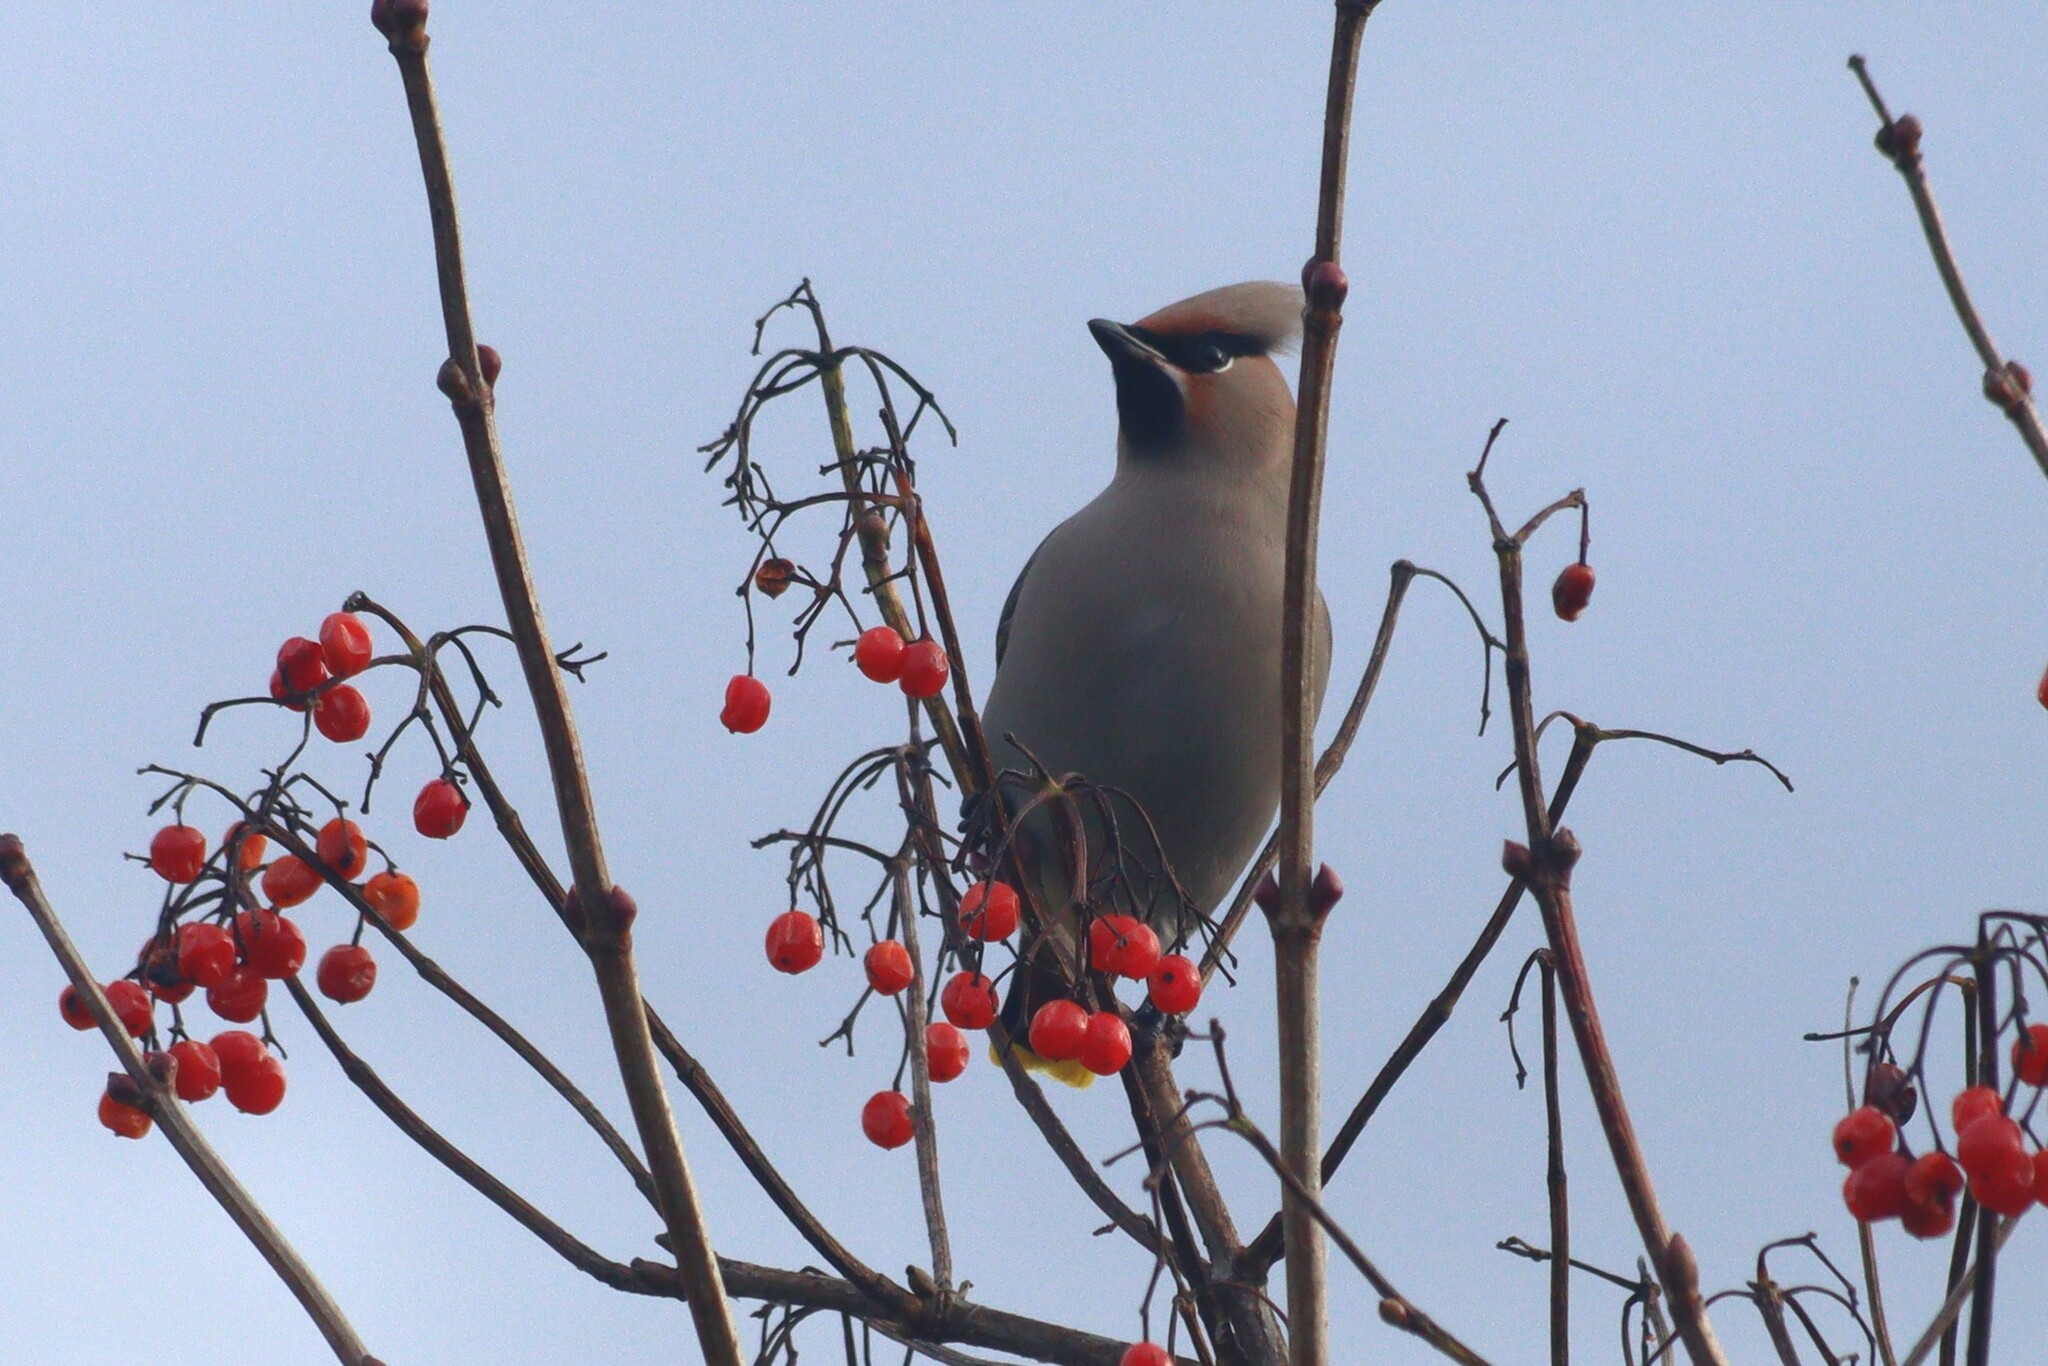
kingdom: Animalia
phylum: Chordata
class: Aves
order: Passeriformes
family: Bombycillidae
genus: Bombycilla
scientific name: Bombycilla garrulus
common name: Bohemian waxwing
